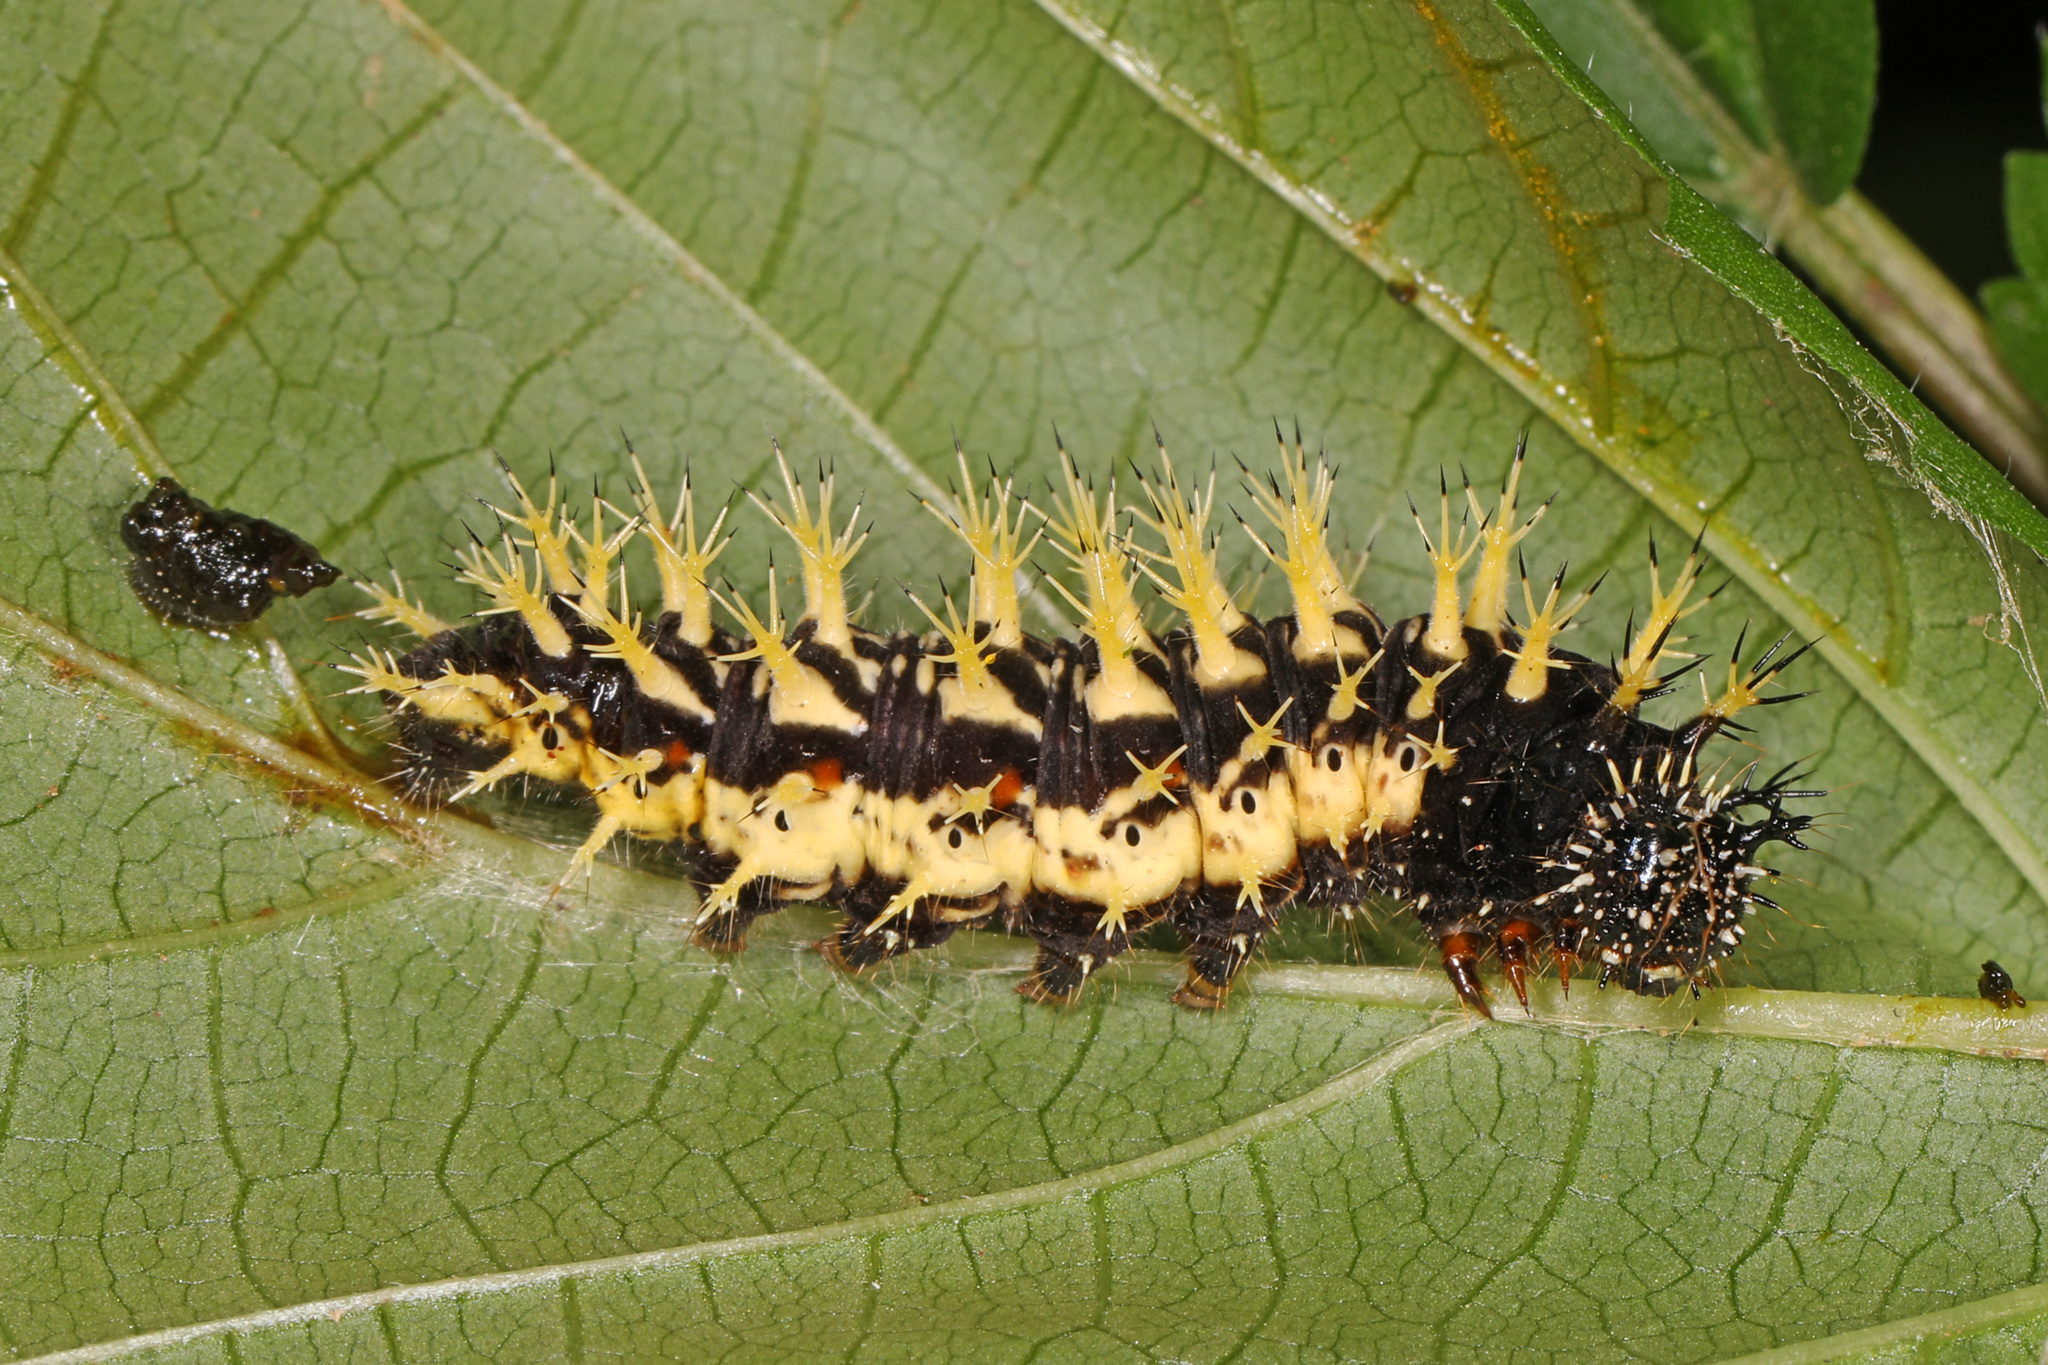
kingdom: Animalia
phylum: Arthropoda
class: Insecta
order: Lepidoptera
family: Nymphalidae
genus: Polygonia
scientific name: Polygonia comma
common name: Eastern comma
